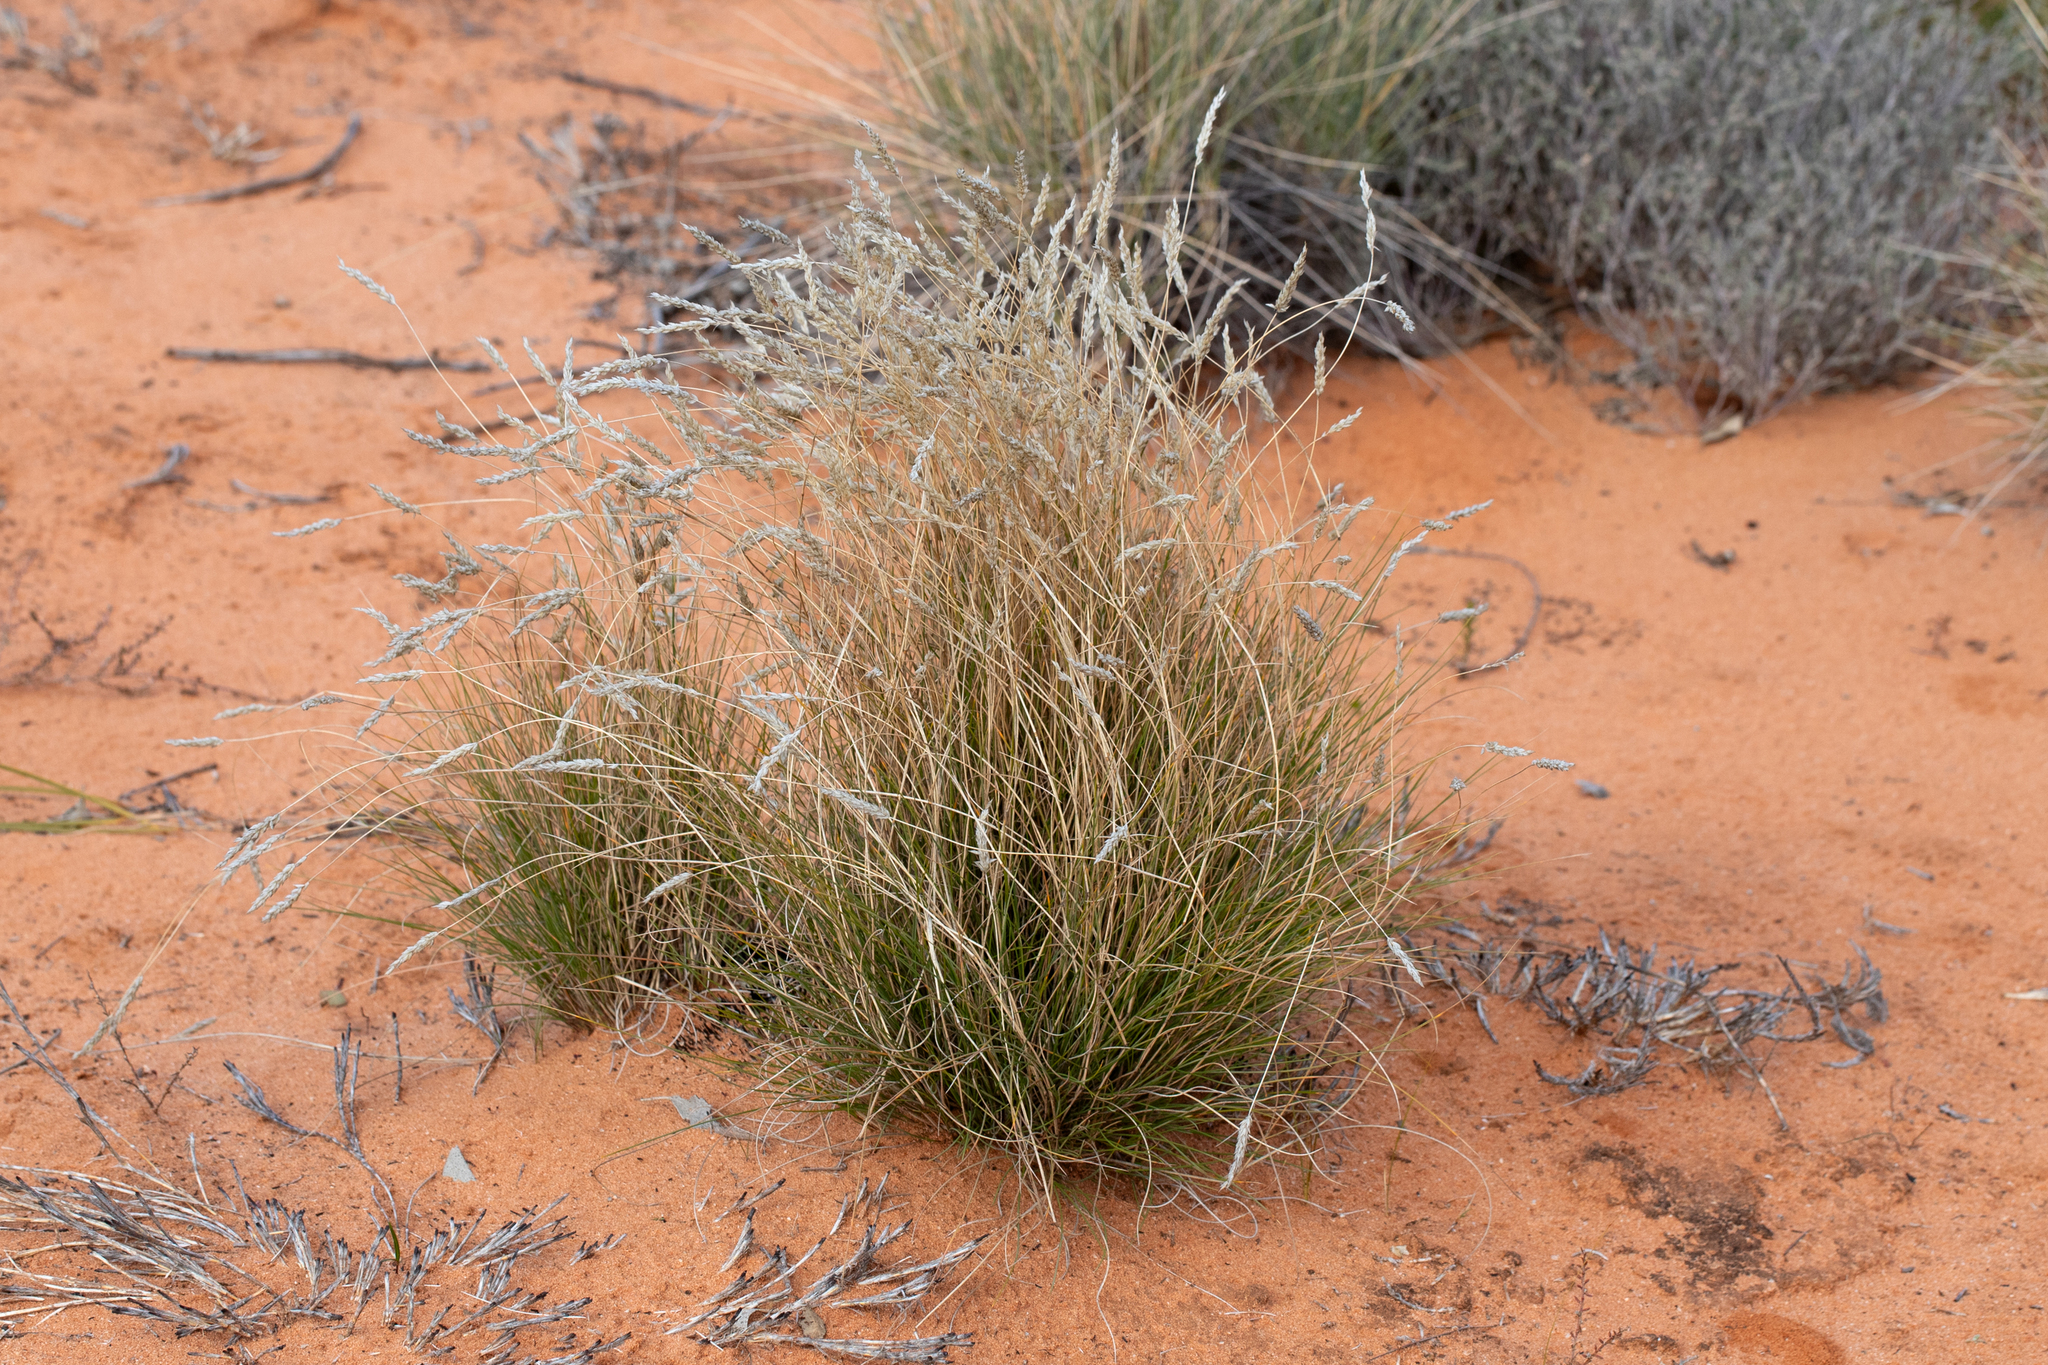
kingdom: Plantae
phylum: Tracheophyta
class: Liliopsida
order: Poales
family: Poaceae
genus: Amphipogon
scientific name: Amphipogon caricinus
